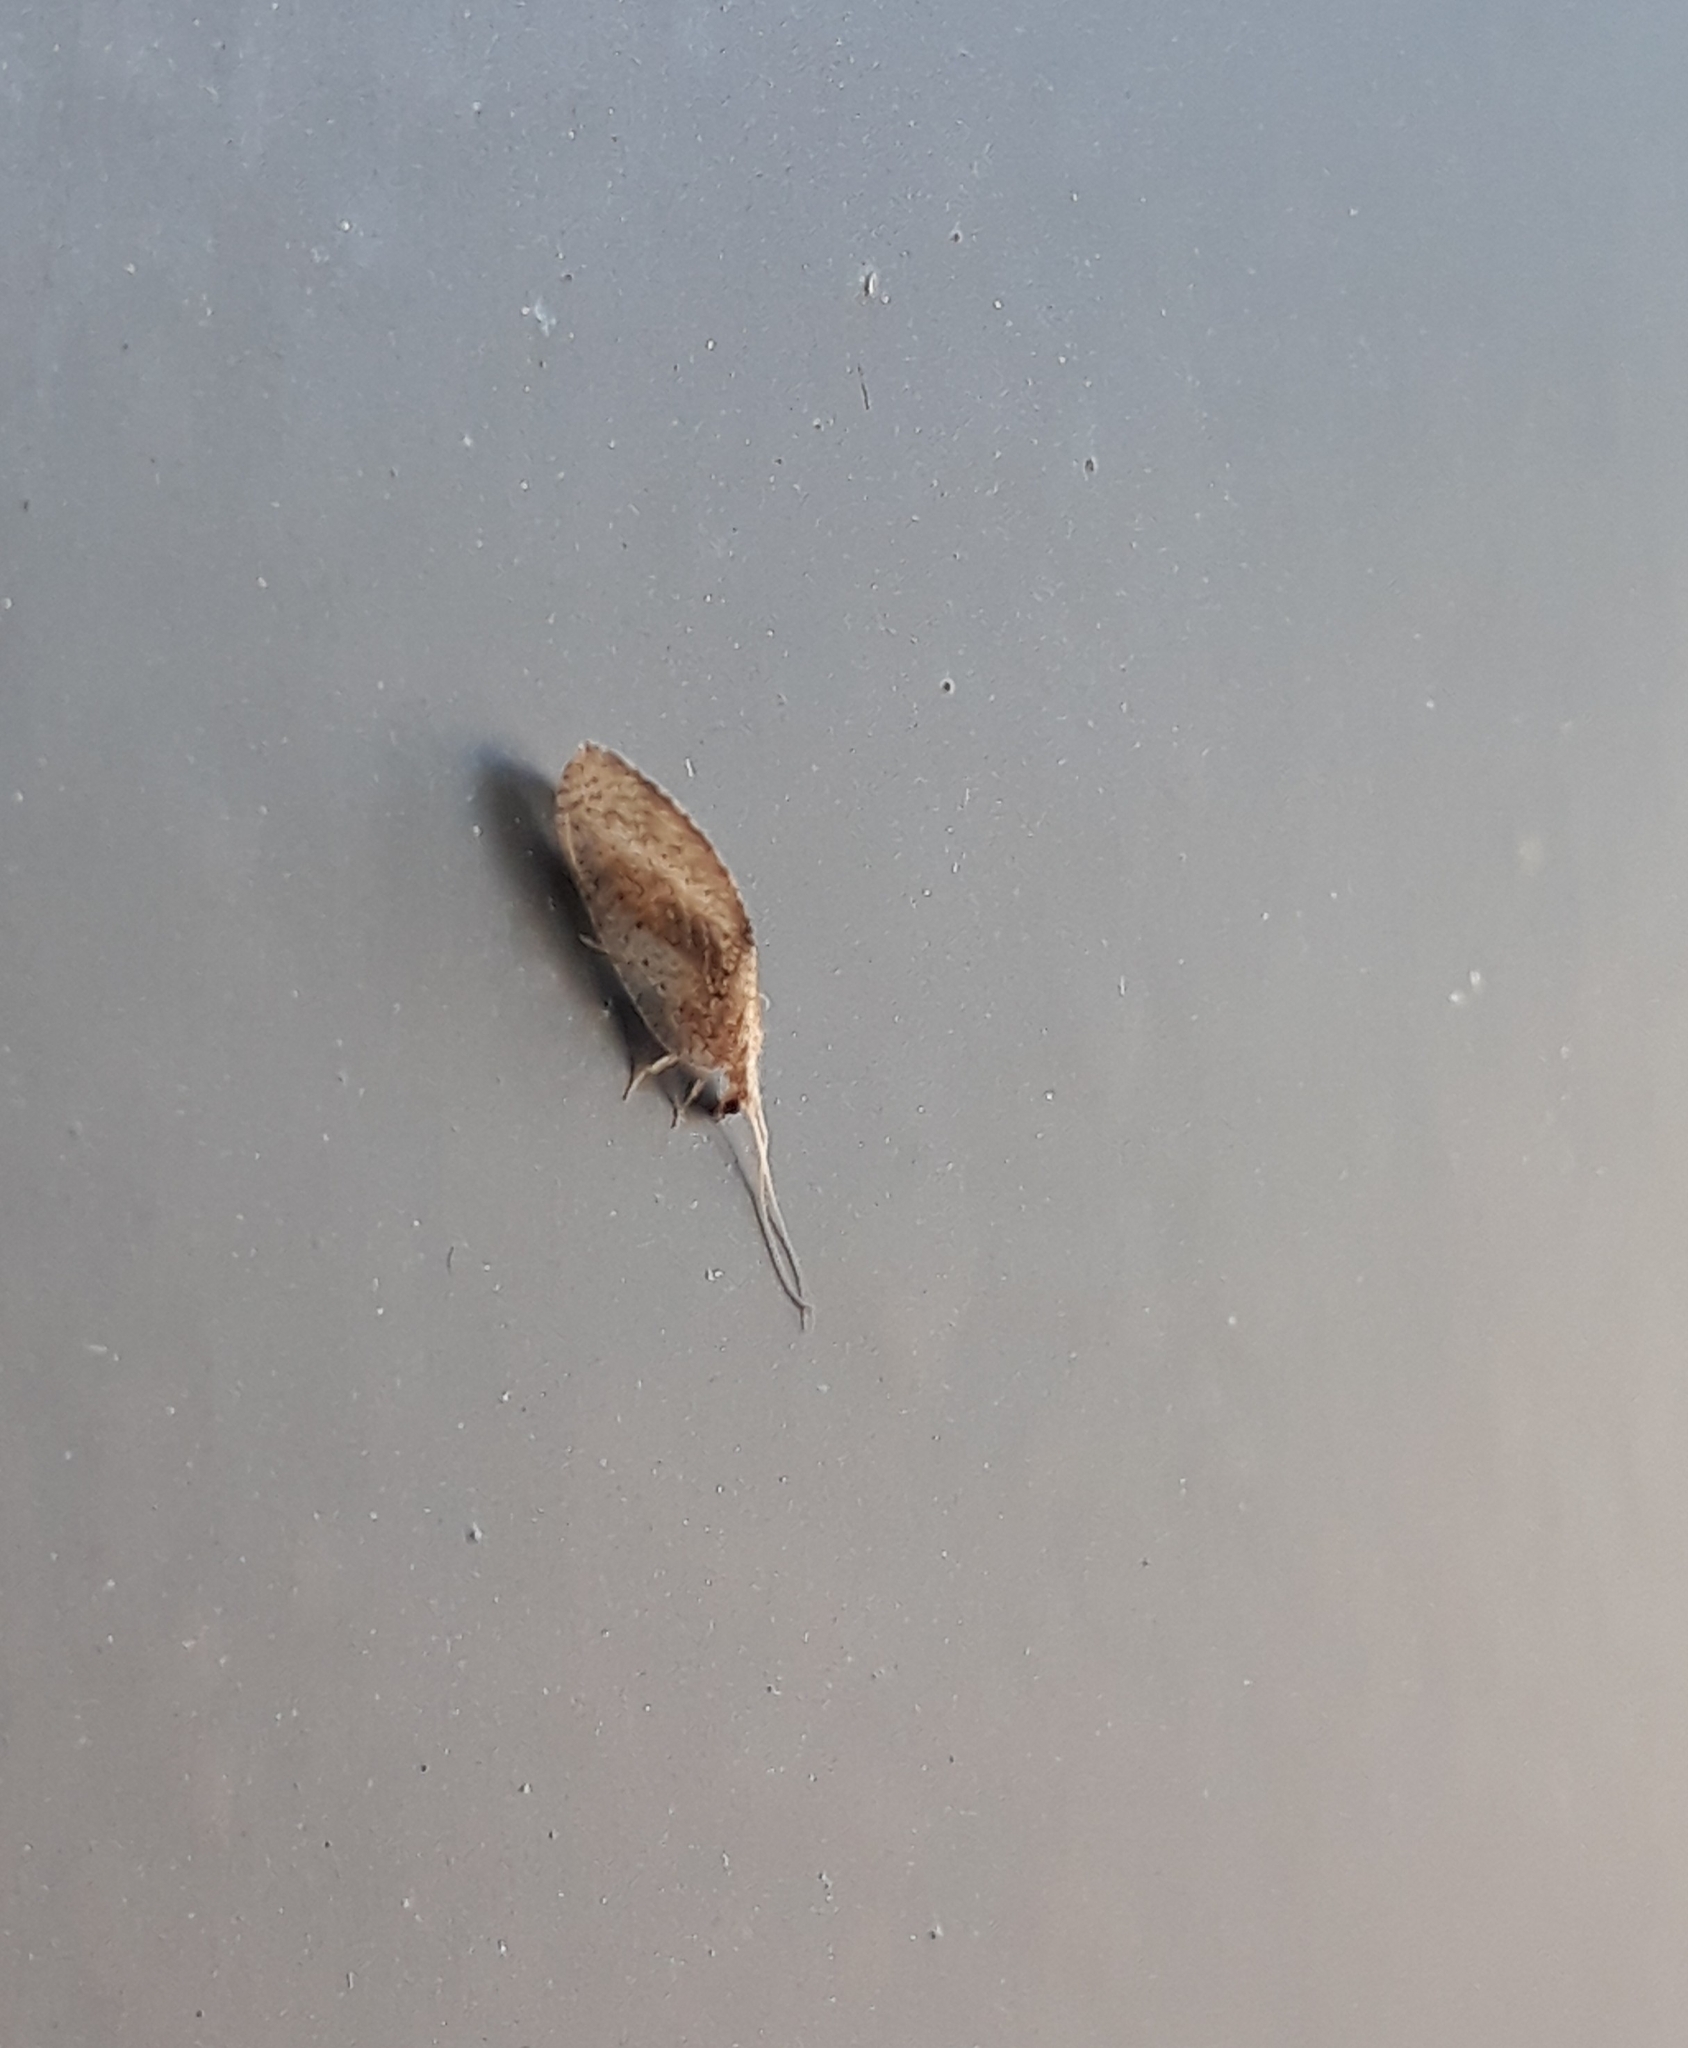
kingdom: Animalia
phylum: Arthropoda
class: Insecta
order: Neuroptera
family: Hemerobiidae
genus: Hemerobius
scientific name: Hemerobius bolivari
